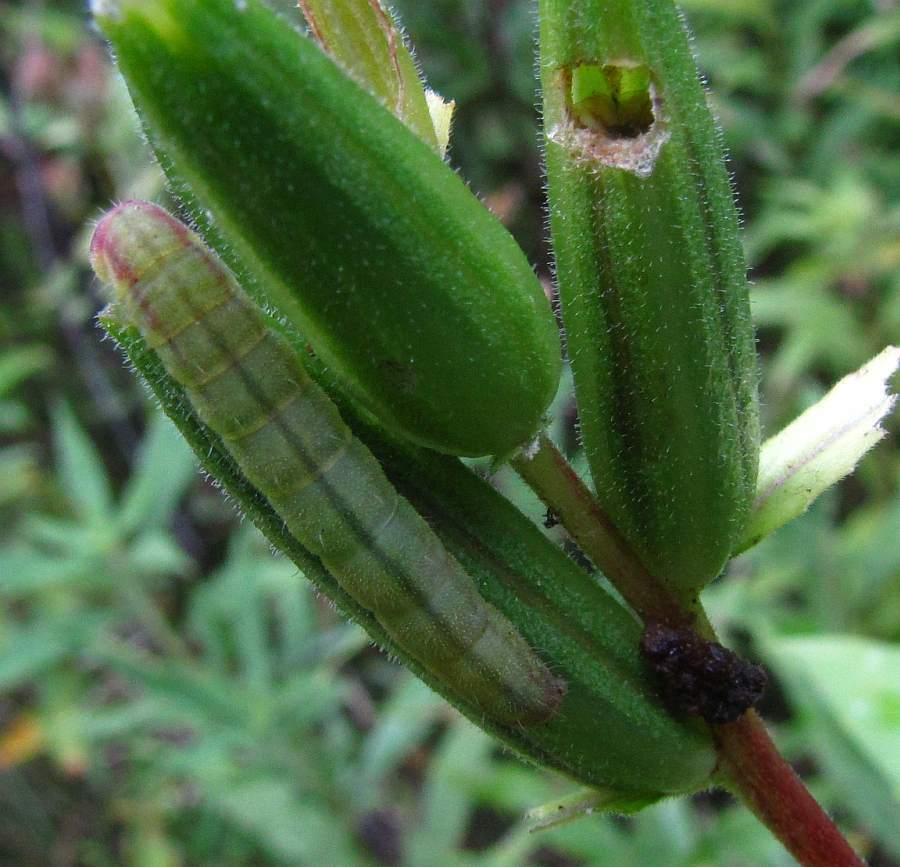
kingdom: Animalia
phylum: Arthropoda
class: Insecta
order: Lepidoptera
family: Noctuidae
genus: Schinia
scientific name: Schinia florida
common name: Primrose moth
